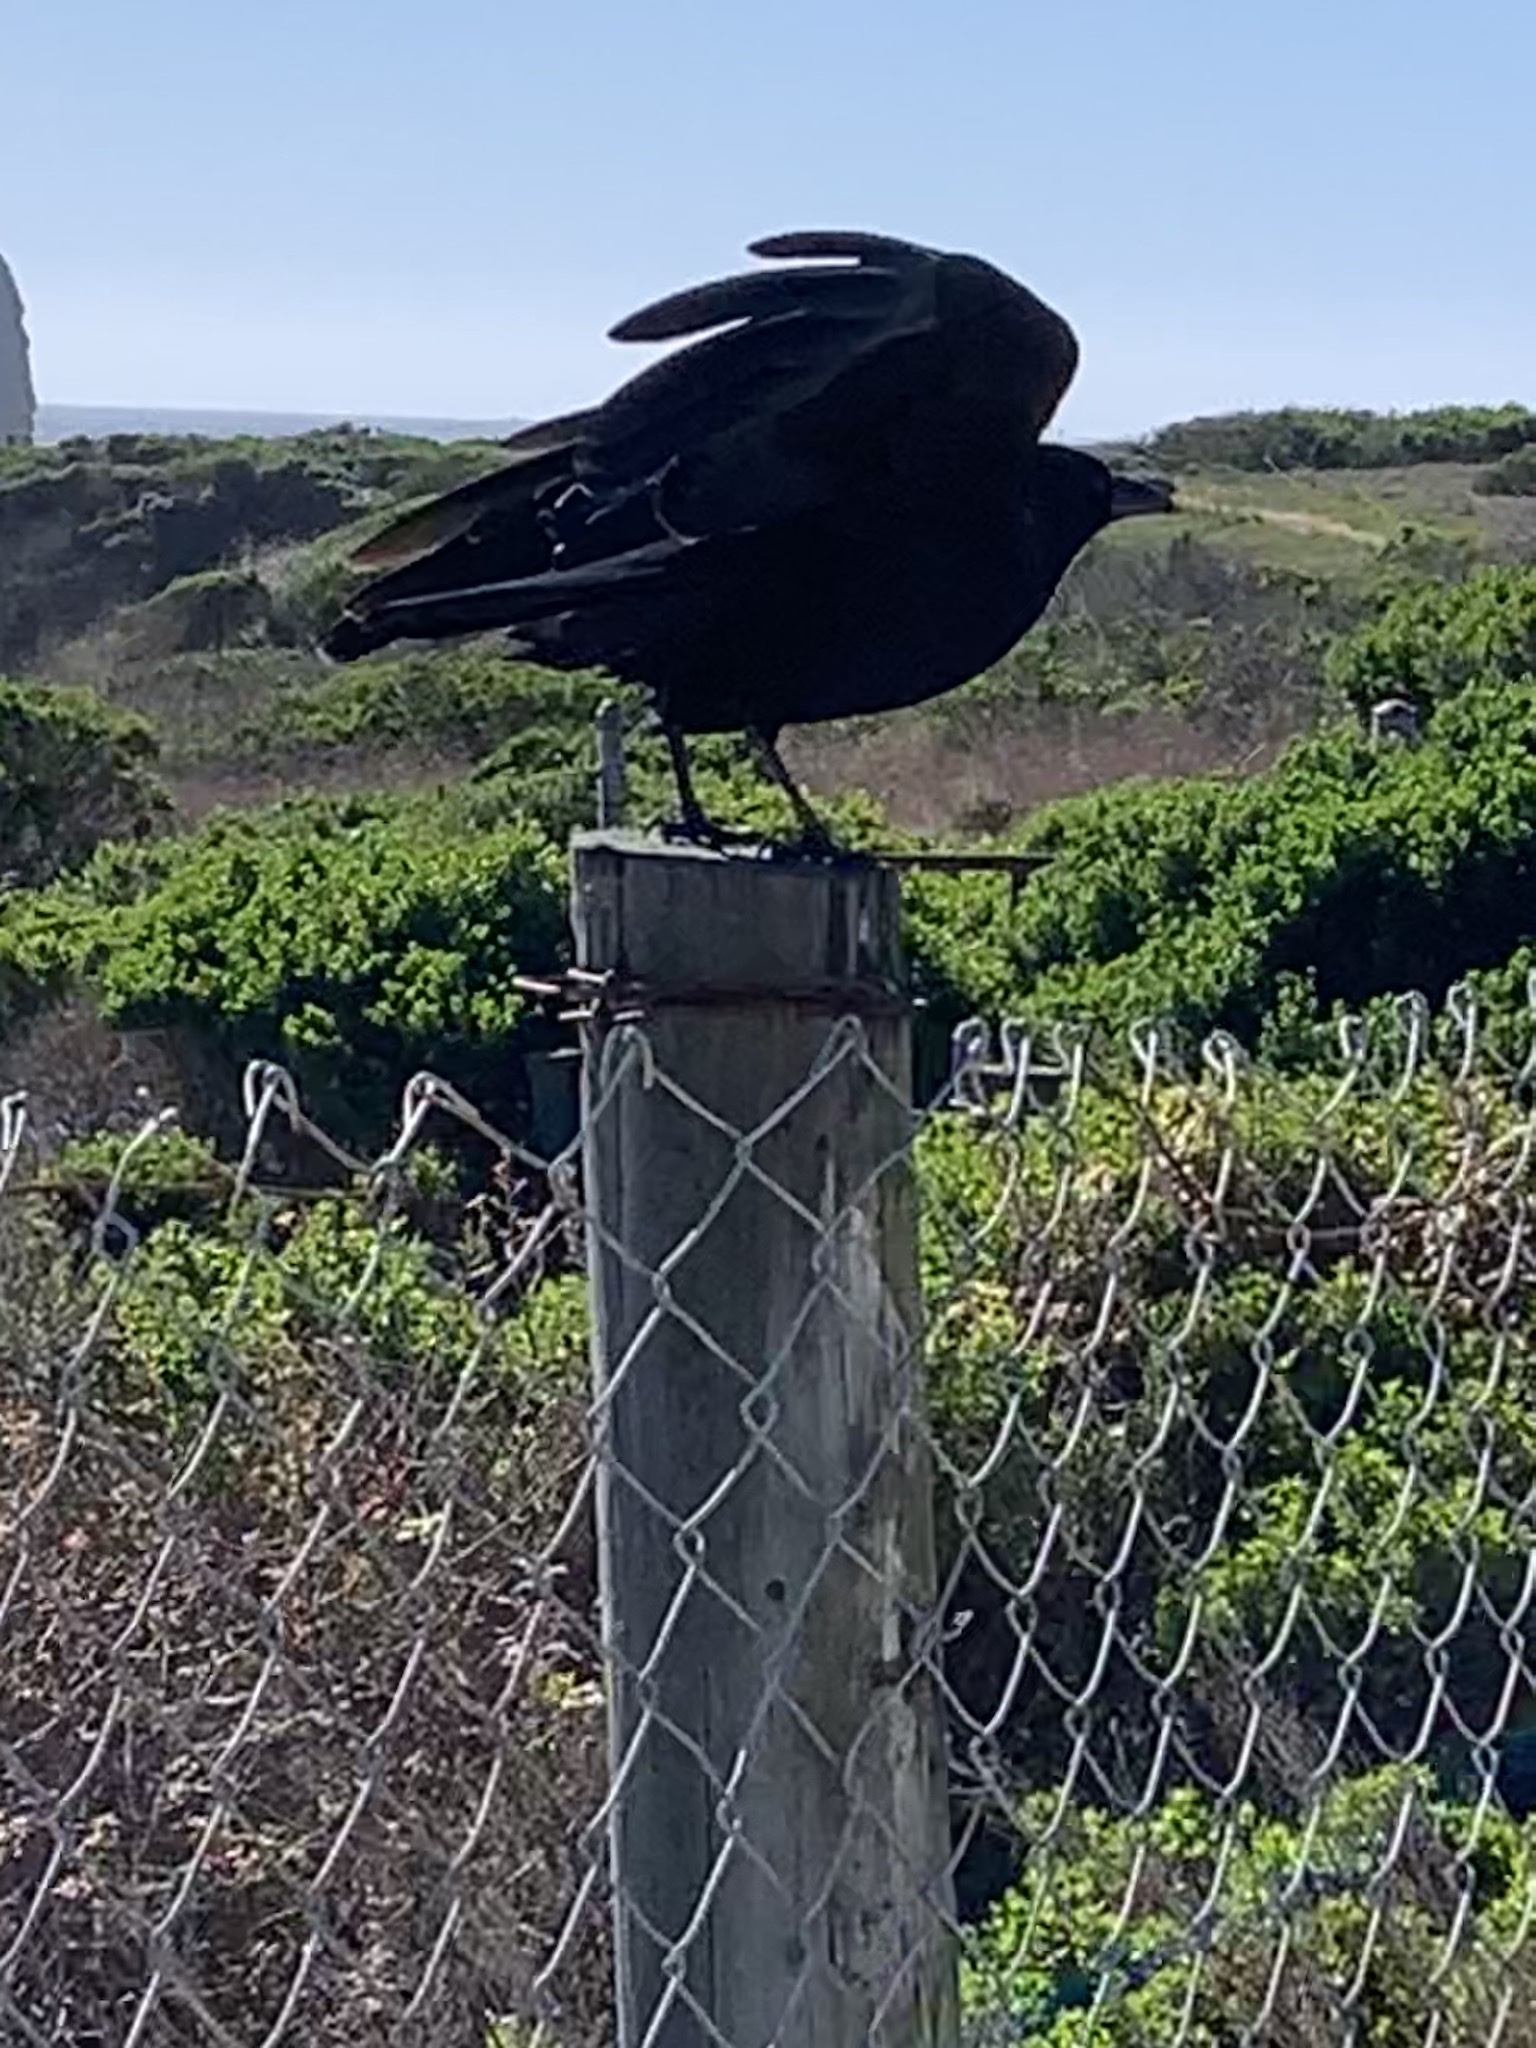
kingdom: Animalia
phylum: Chordata
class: Aves
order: Passeriformes
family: Corvidae
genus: Corvus
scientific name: Corvus brachyrhynchos
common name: American crow
